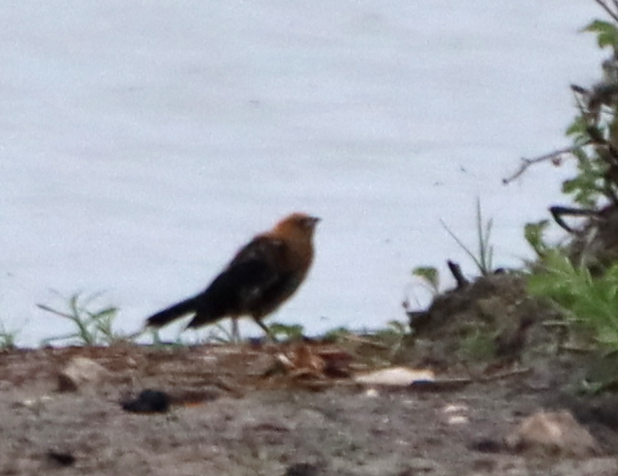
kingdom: Animalia
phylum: Chordata
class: Aves
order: Passeriformes
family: Icteridae
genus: Xanthocephalus
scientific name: Xanthocephalus xanthocephalus
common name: Yellow-headed blackbird
